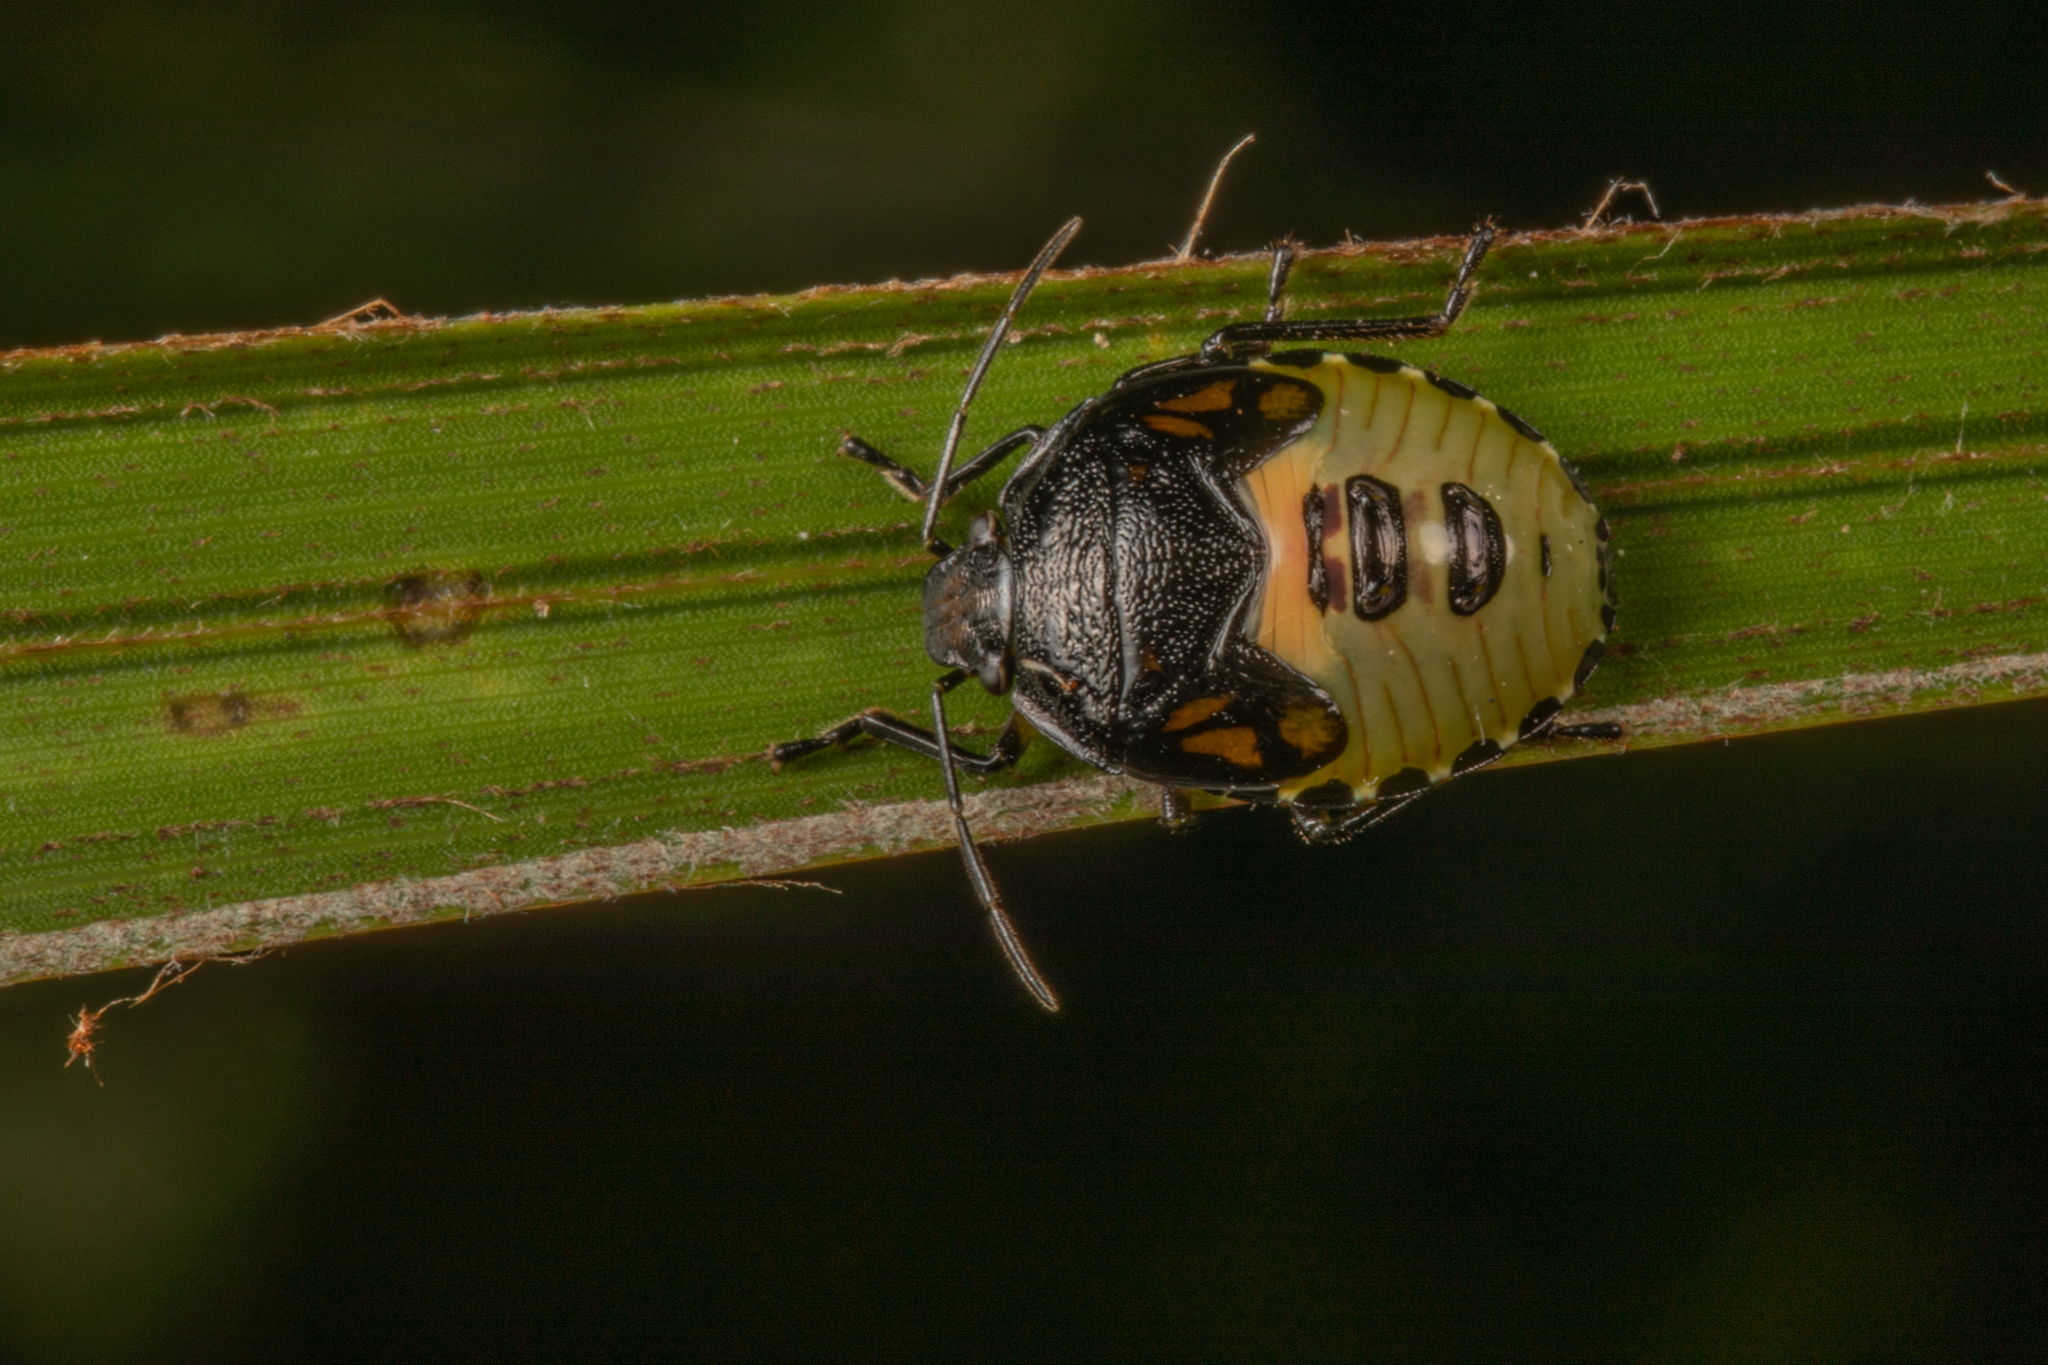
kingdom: Animalia
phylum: Arthropoda
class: Insecta
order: Hemiptera
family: Pentatomidae
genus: Glaucias
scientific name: Glaucias amyota
